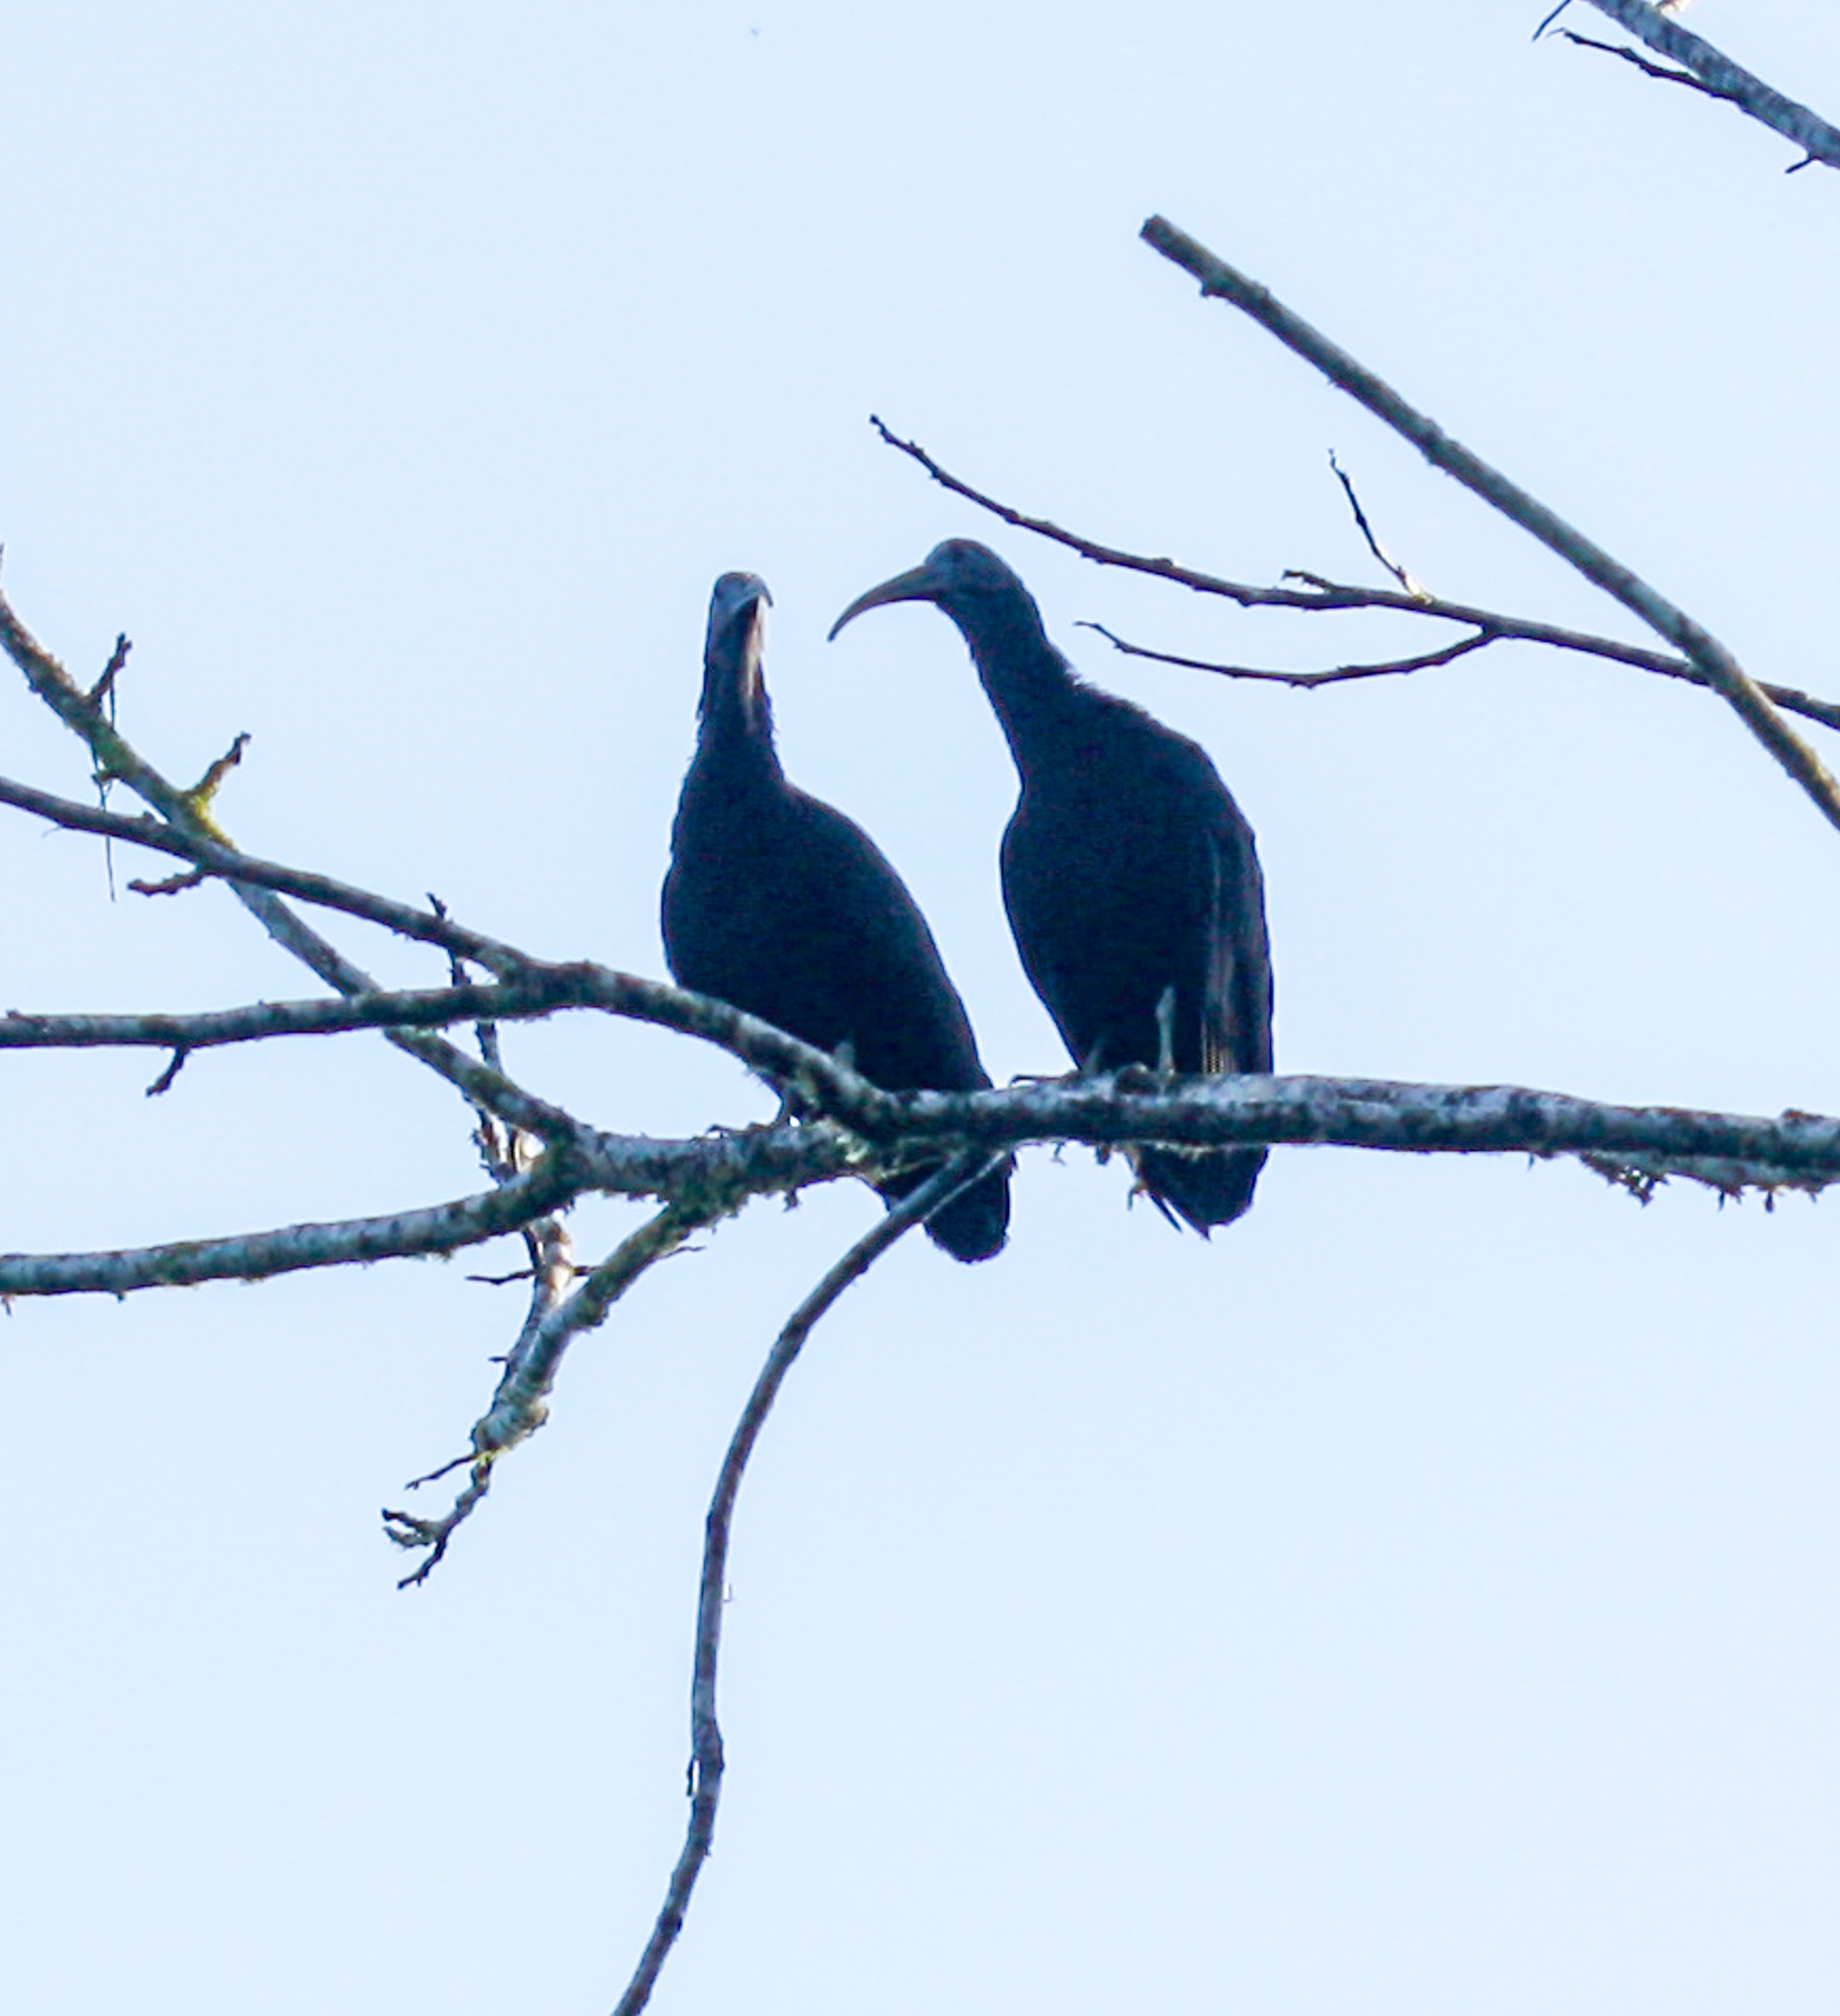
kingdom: Animalia
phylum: Chordata
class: Aves
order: Pelecaniformes
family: Threskiornithidae
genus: Mesembrinibis
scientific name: Mesembrinibis cayennensis
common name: Green ibis
